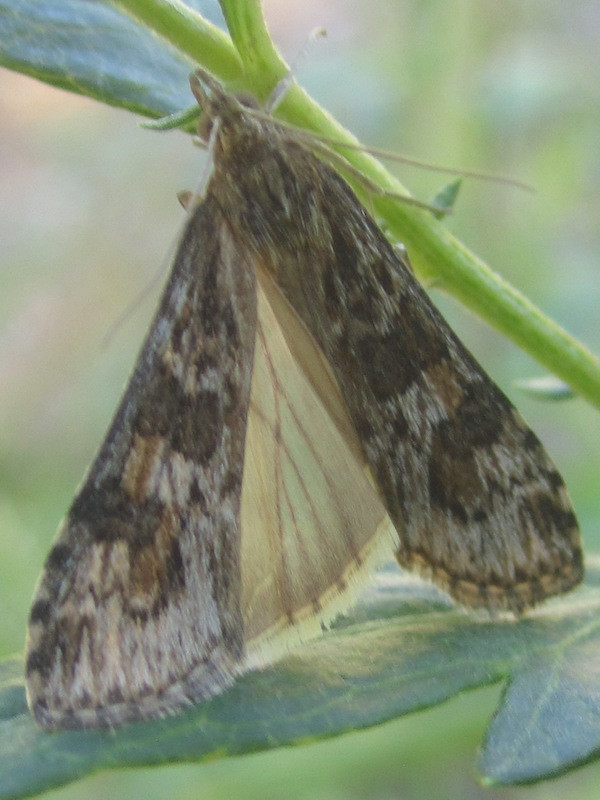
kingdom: Animalia
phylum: Arthropoda
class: Insecta
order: Lepidoptera
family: Crambidae
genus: Nomophila
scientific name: Nomophila nearctica
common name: American rush veneer
